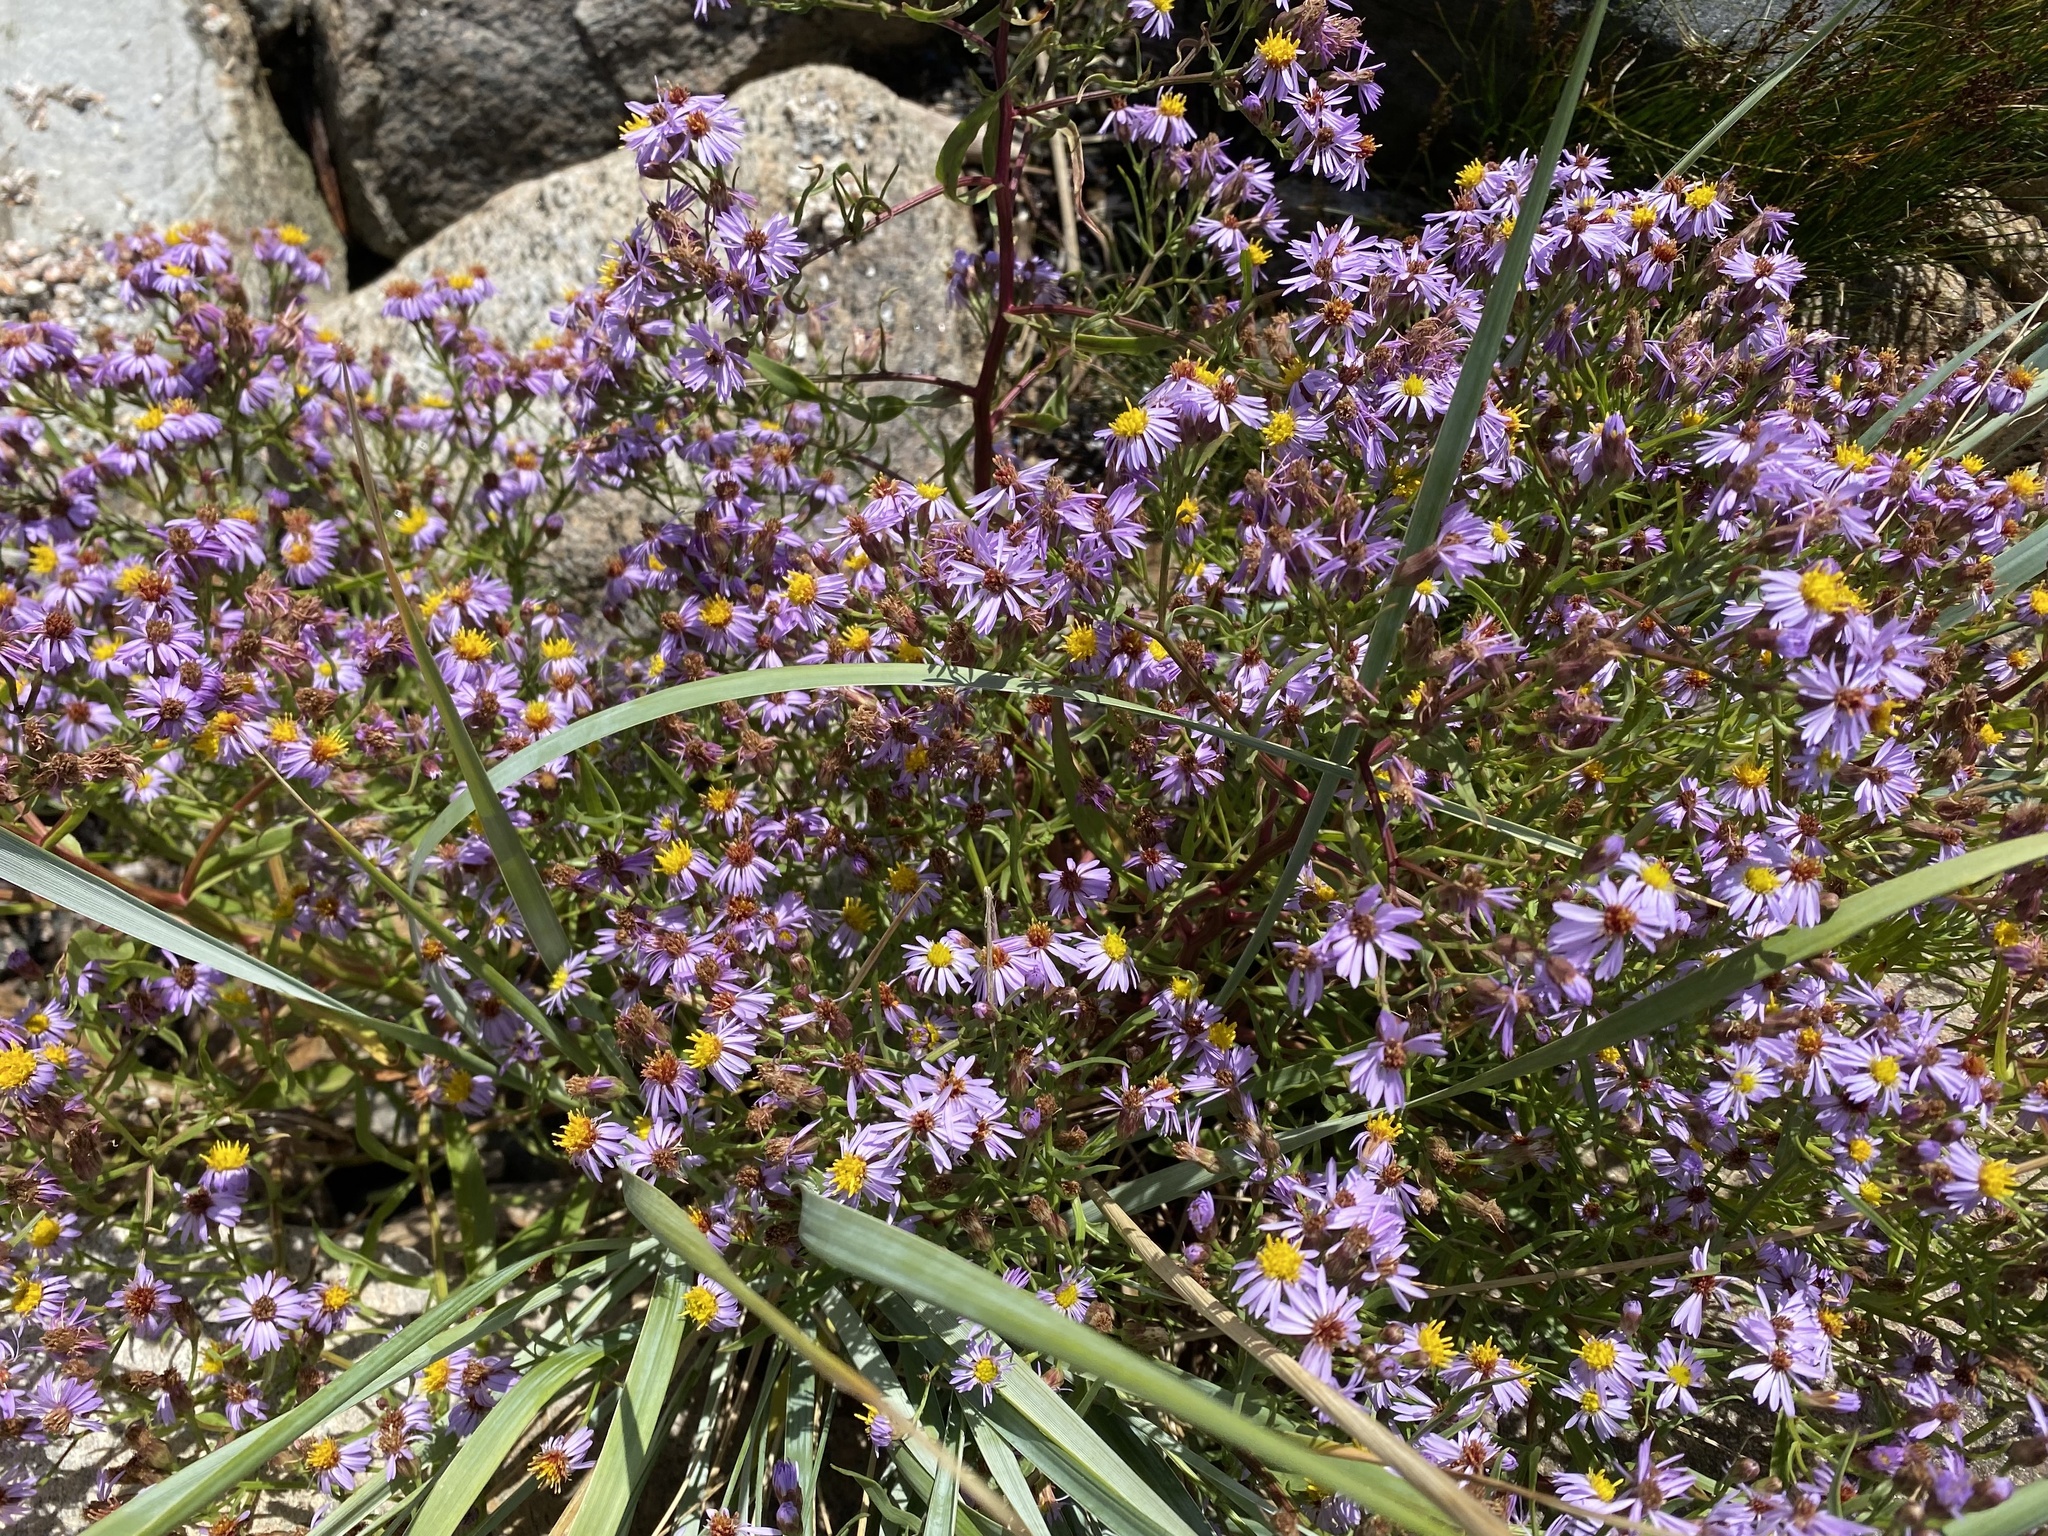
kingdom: Plantae
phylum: Tracheophyta
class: Magnoliopsida
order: Asterales
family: Asteraceae
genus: Tripolium
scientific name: Tripolium pannonicum
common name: Sea aster
